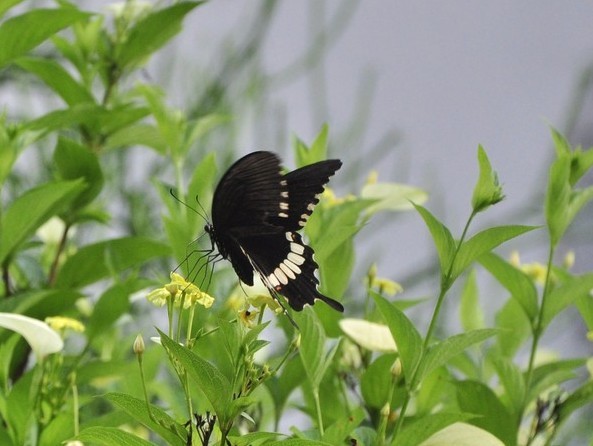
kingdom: Animalia
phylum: Arthropoda
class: Insecta
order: Lepidoptera
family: Papilionidae
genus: Papilio
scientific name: Papilio polytes
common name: Common mormon
